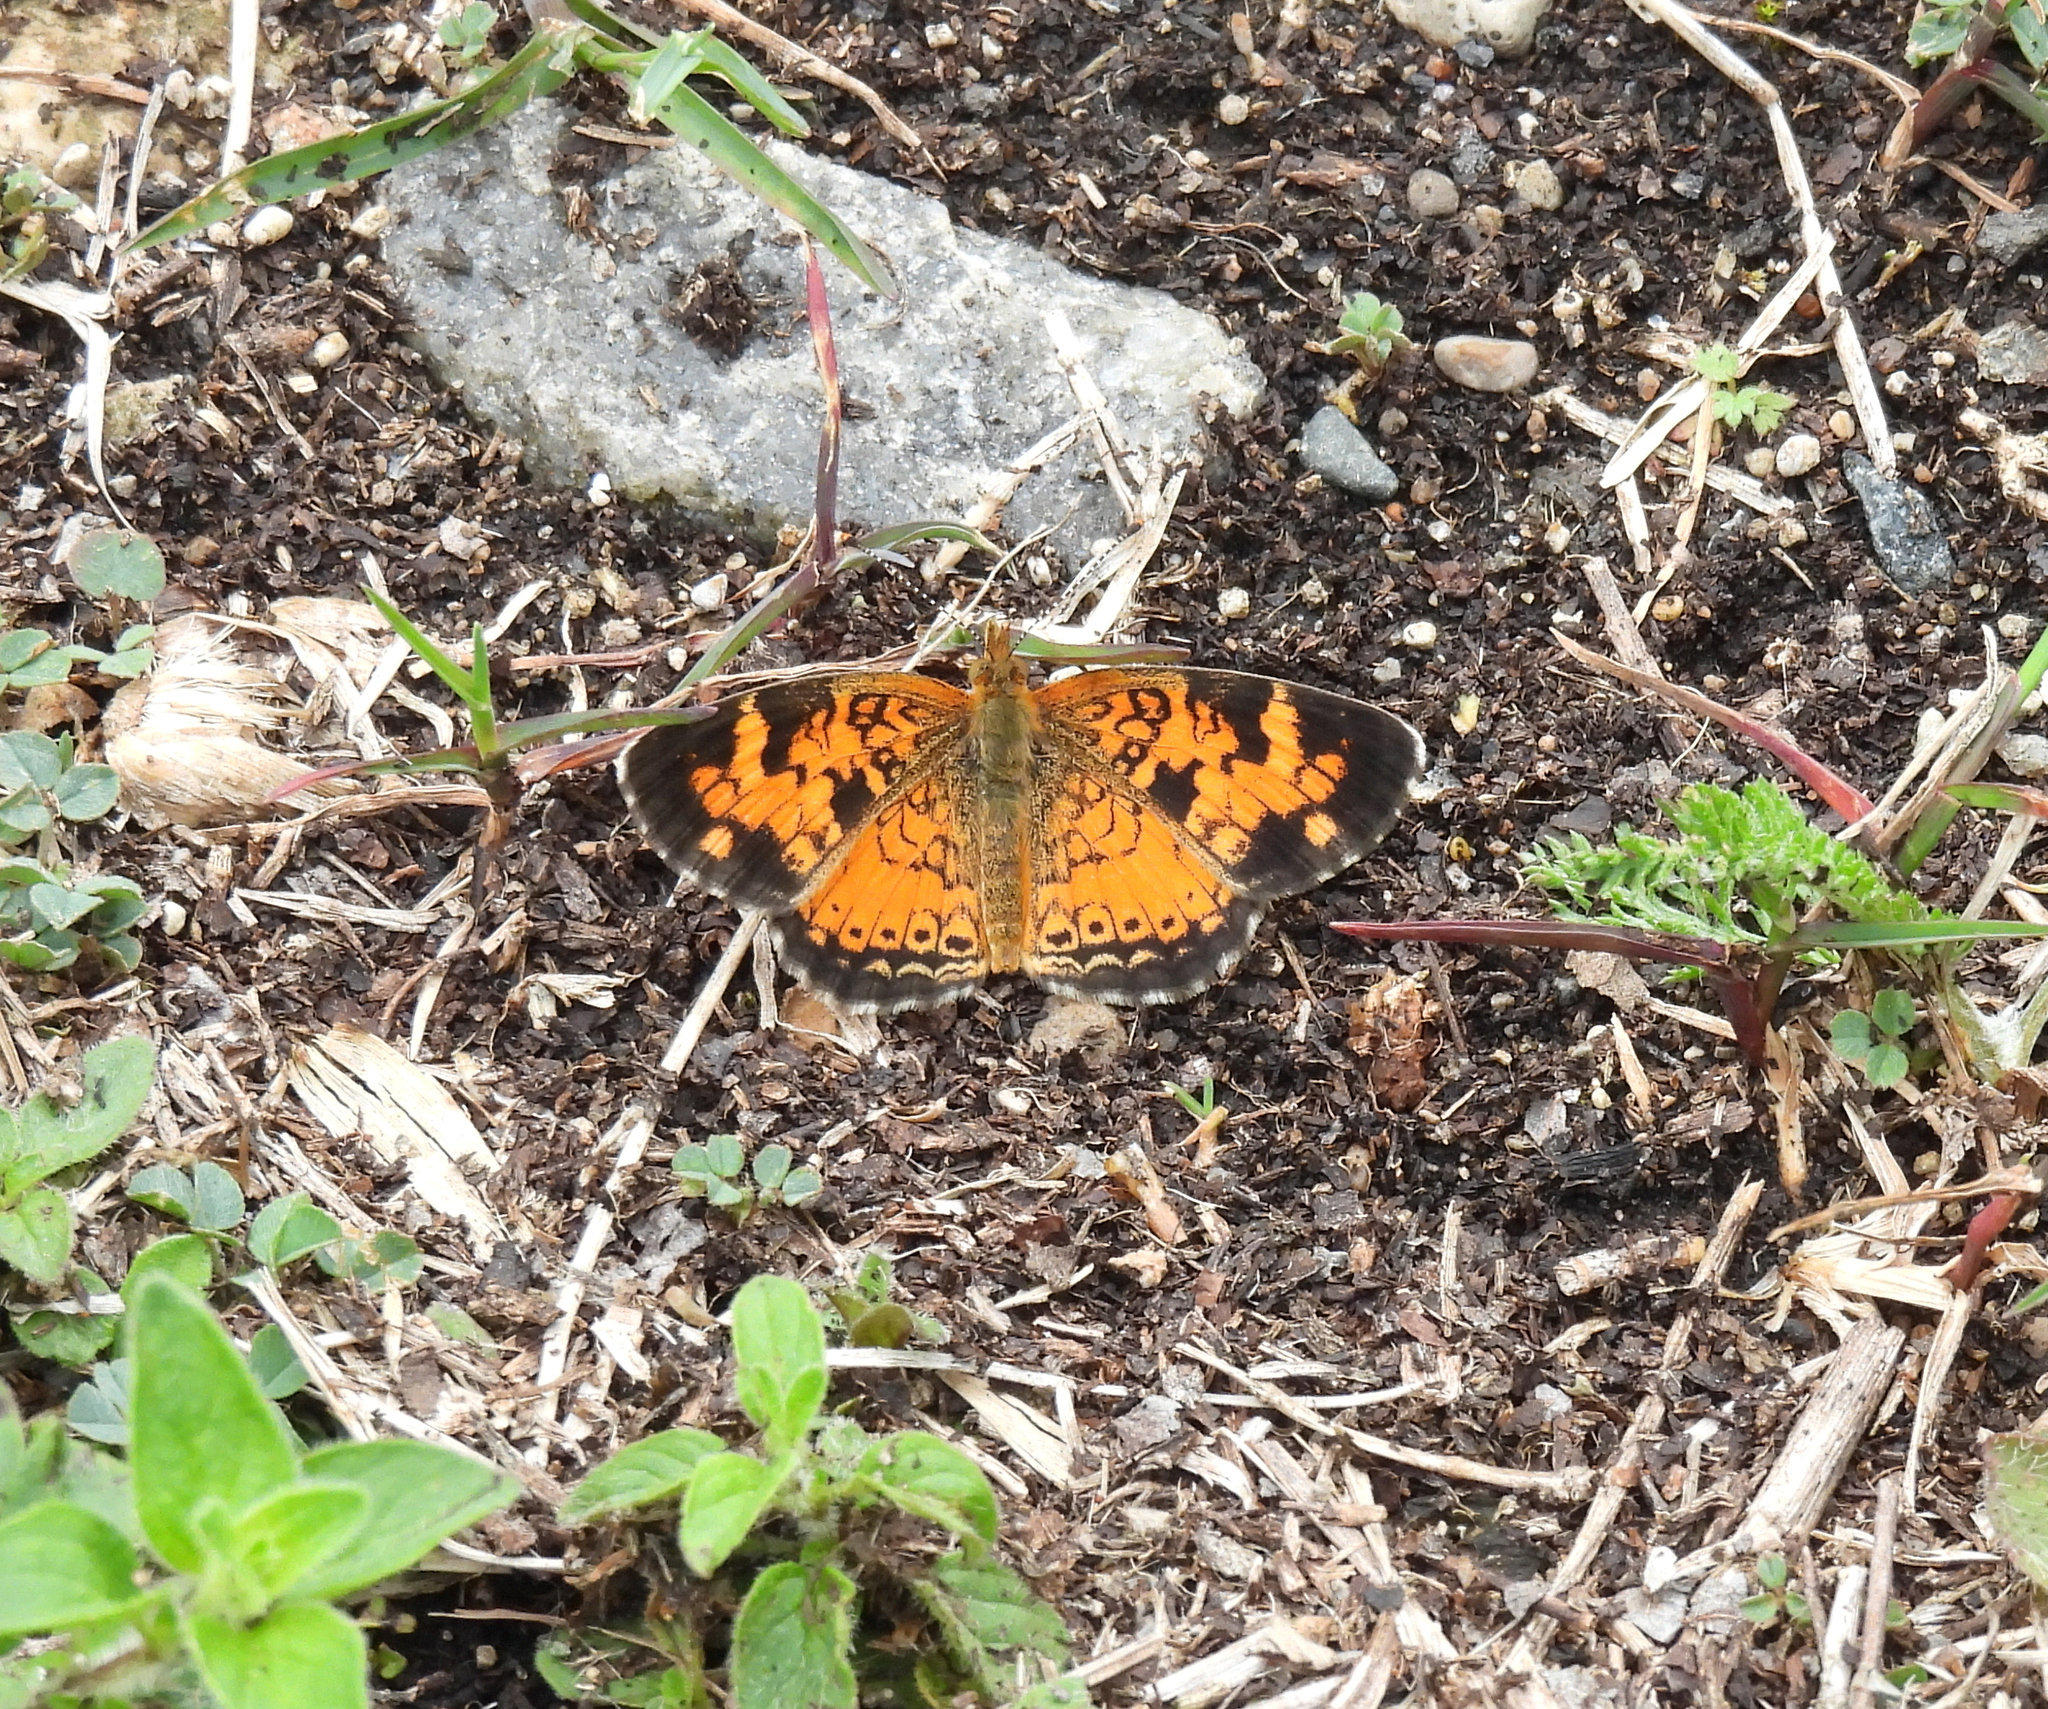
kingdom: Animalia
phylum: Arthropoda
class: Insecta
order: Lepidoptera
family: Nymphalidae
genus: Phyciodes
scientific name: Phyciodes tharos
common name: Pearl crescent
